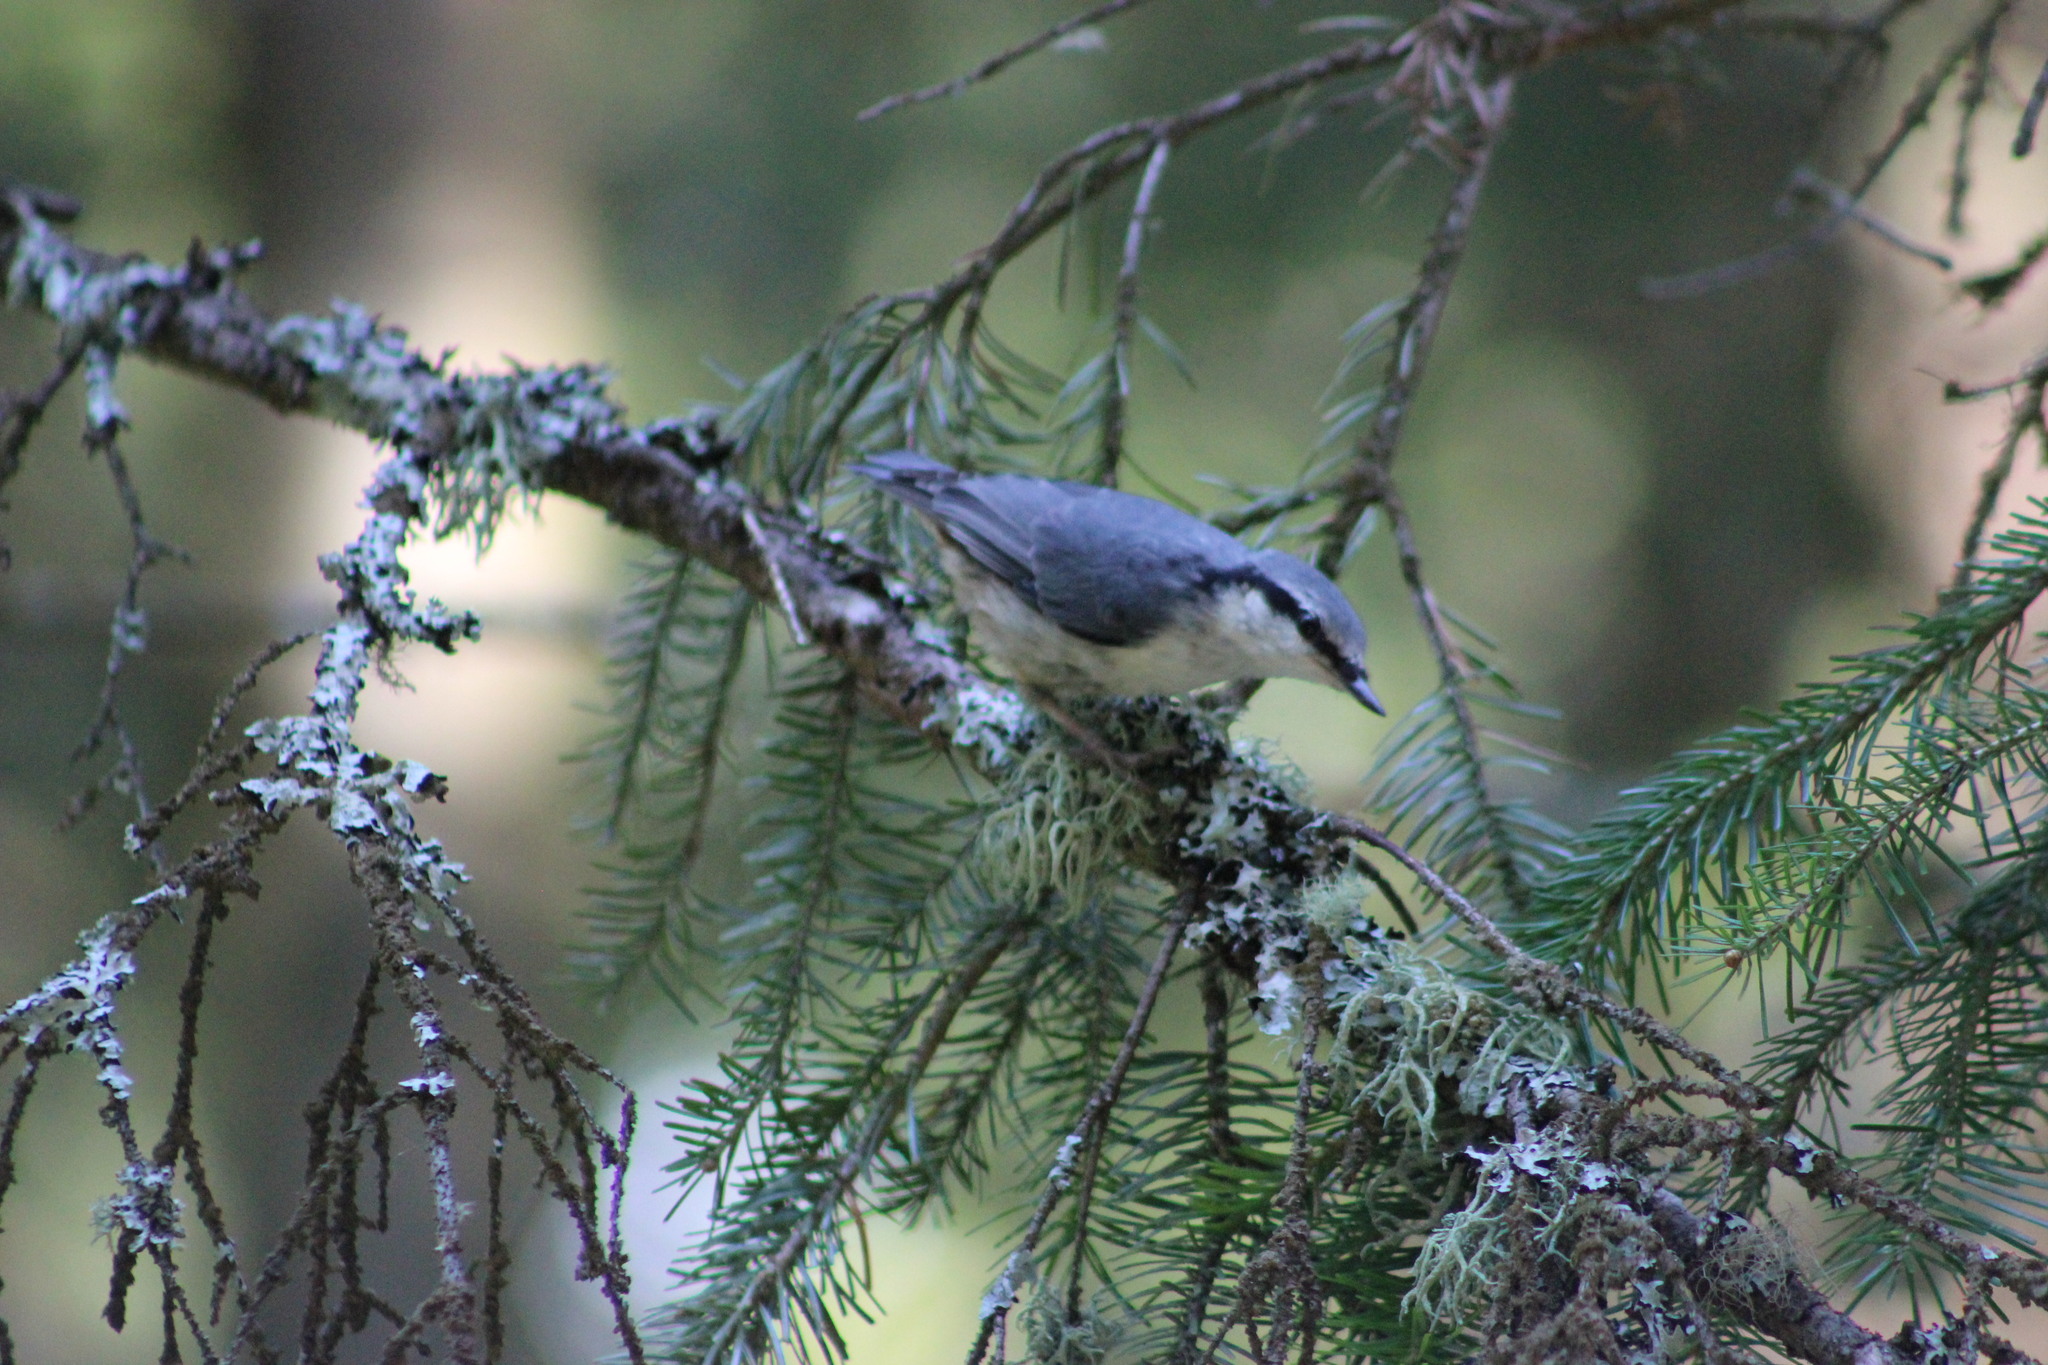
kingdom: Animalia
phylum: Chordata
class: Aves
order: Passeriformes
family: Sittidae
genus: Sitta
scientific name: Sitta europaea
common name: Eurasian nuthatch
